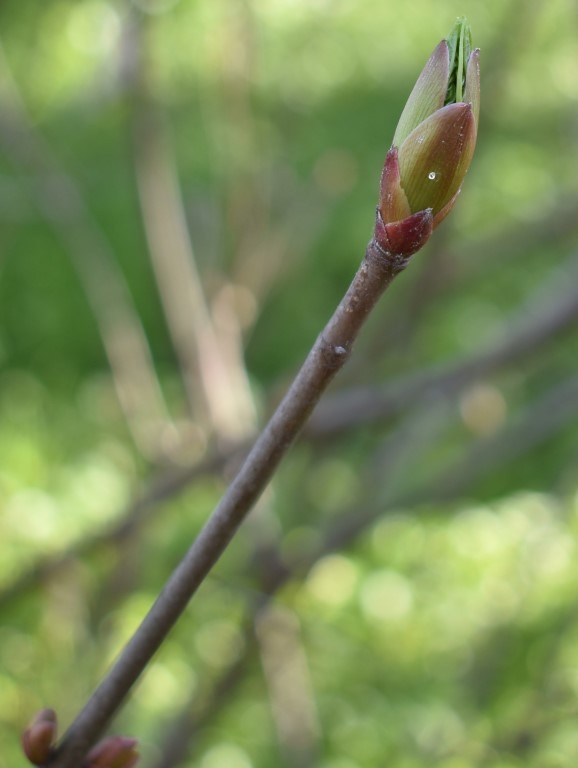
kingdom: Plantae
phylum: Tracheophyta
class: Magnoliopsida
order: Sapindales
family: Sapindaceae
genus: Aesculus
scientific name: Aesculus californica
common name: California buckeye
